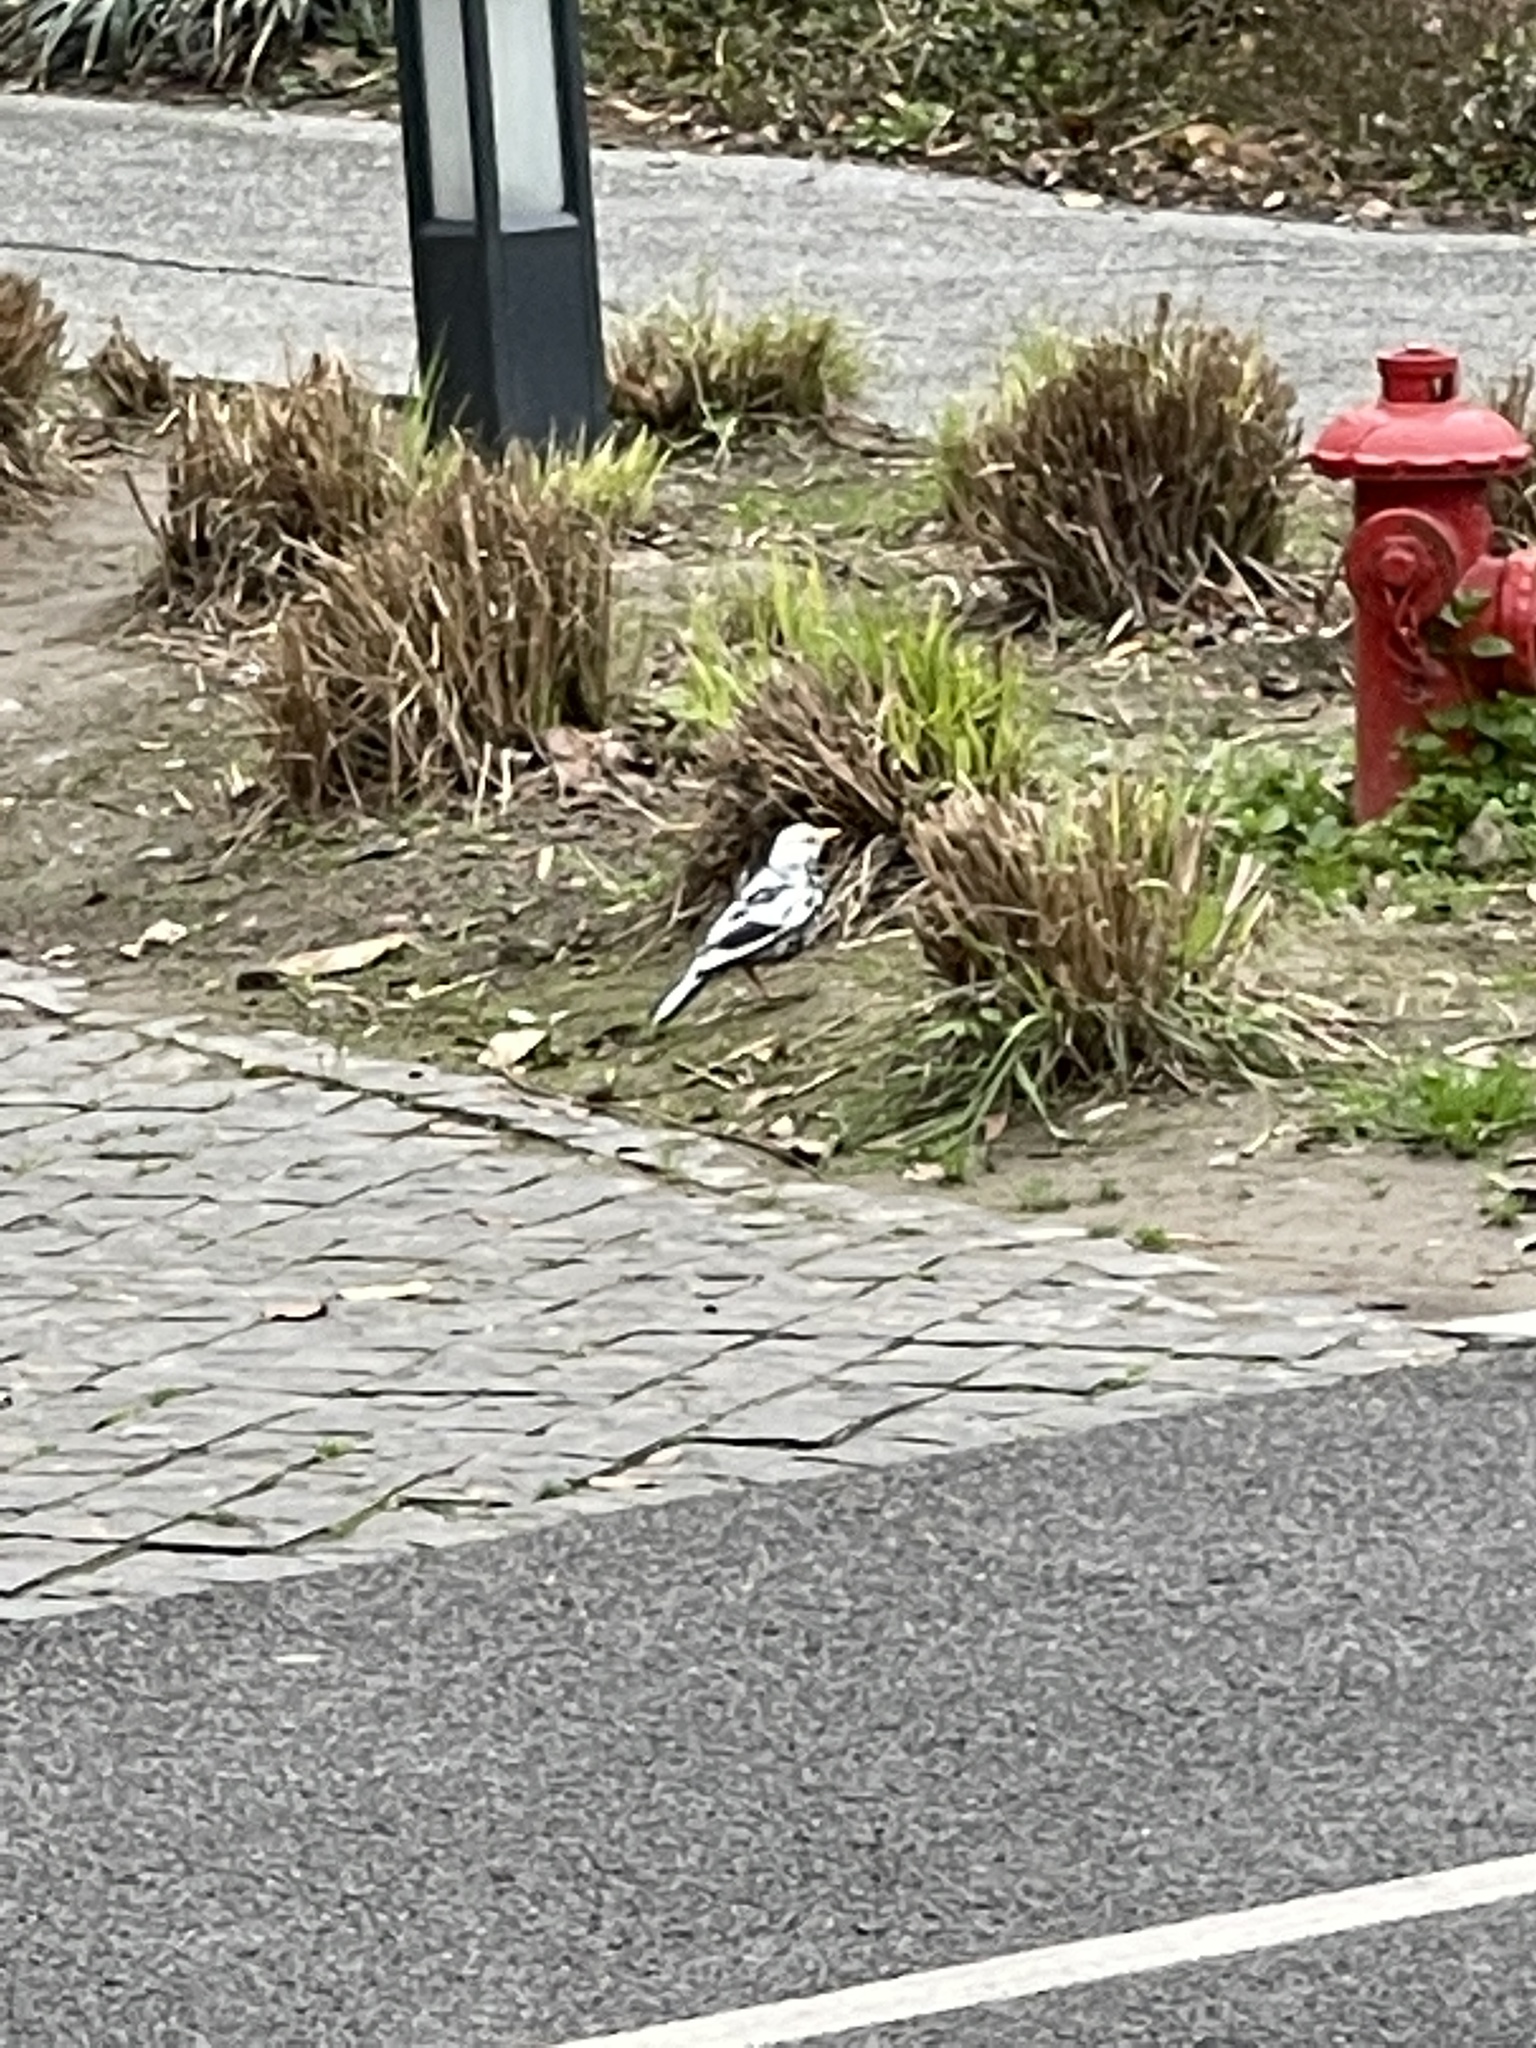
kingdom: Animalia
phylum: Chordata
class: Aves
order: Passeriformes
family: Turdidae
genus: Turdus
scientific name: Turdus mandarinus
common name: Chinese blackbird
